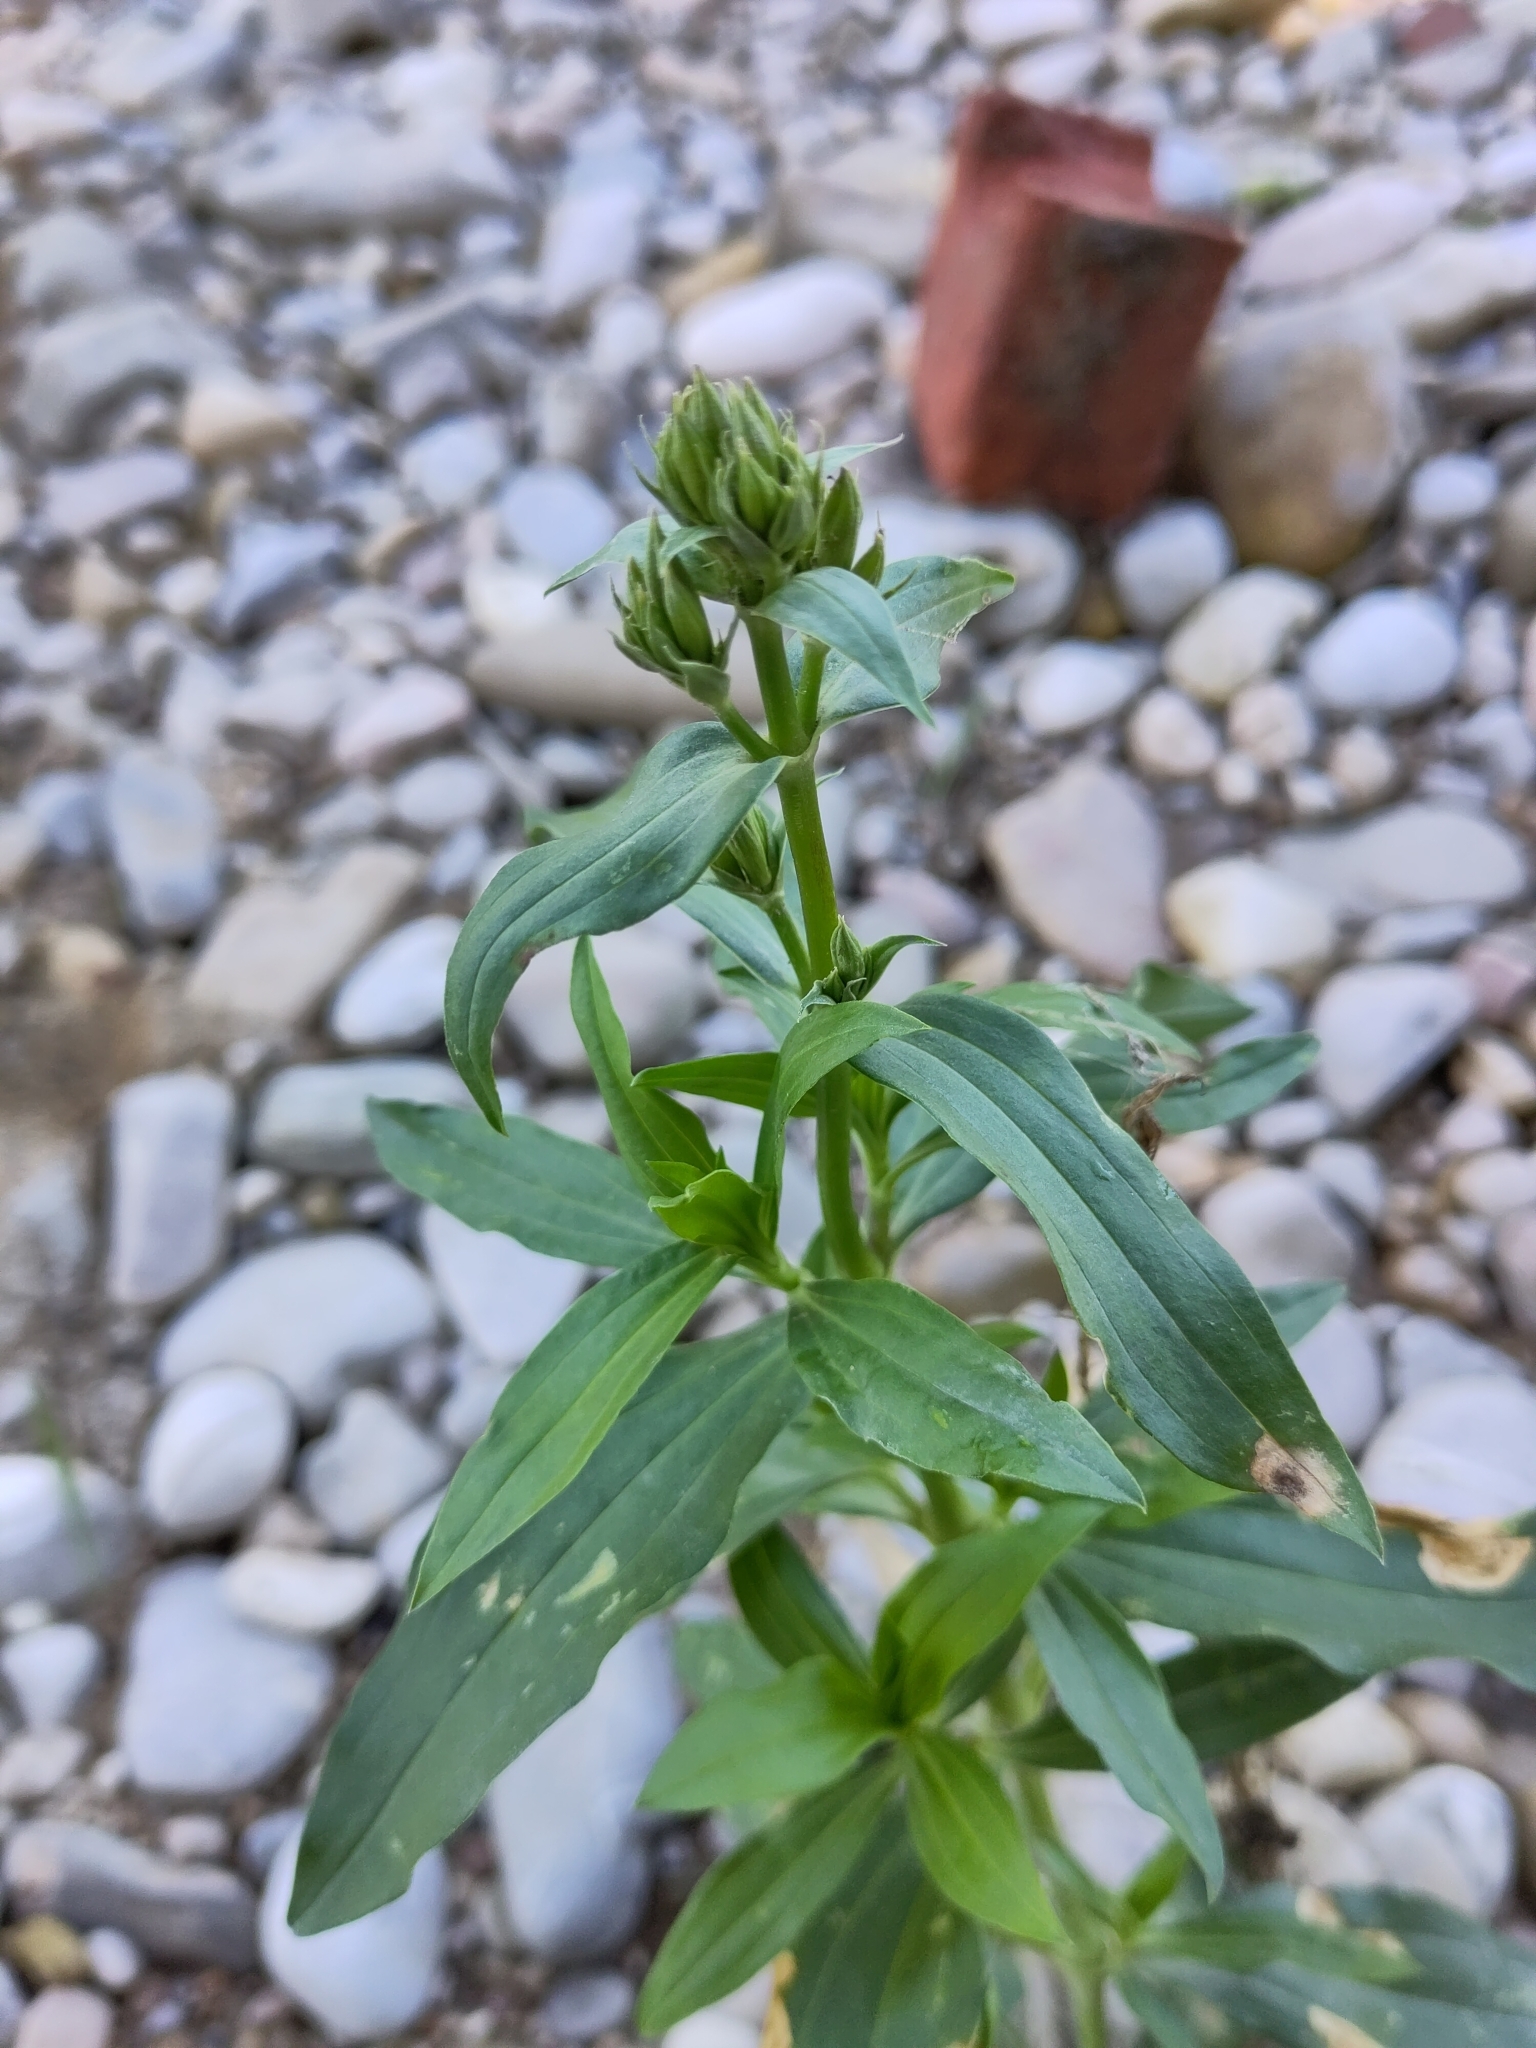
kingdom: Plantae
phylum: Tracheophyta
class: Magnoliopsida
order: Caryophyllales
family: Caryophyllaceae
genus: Saponaria
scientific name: Saponaria officinalis
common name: Soapwort
